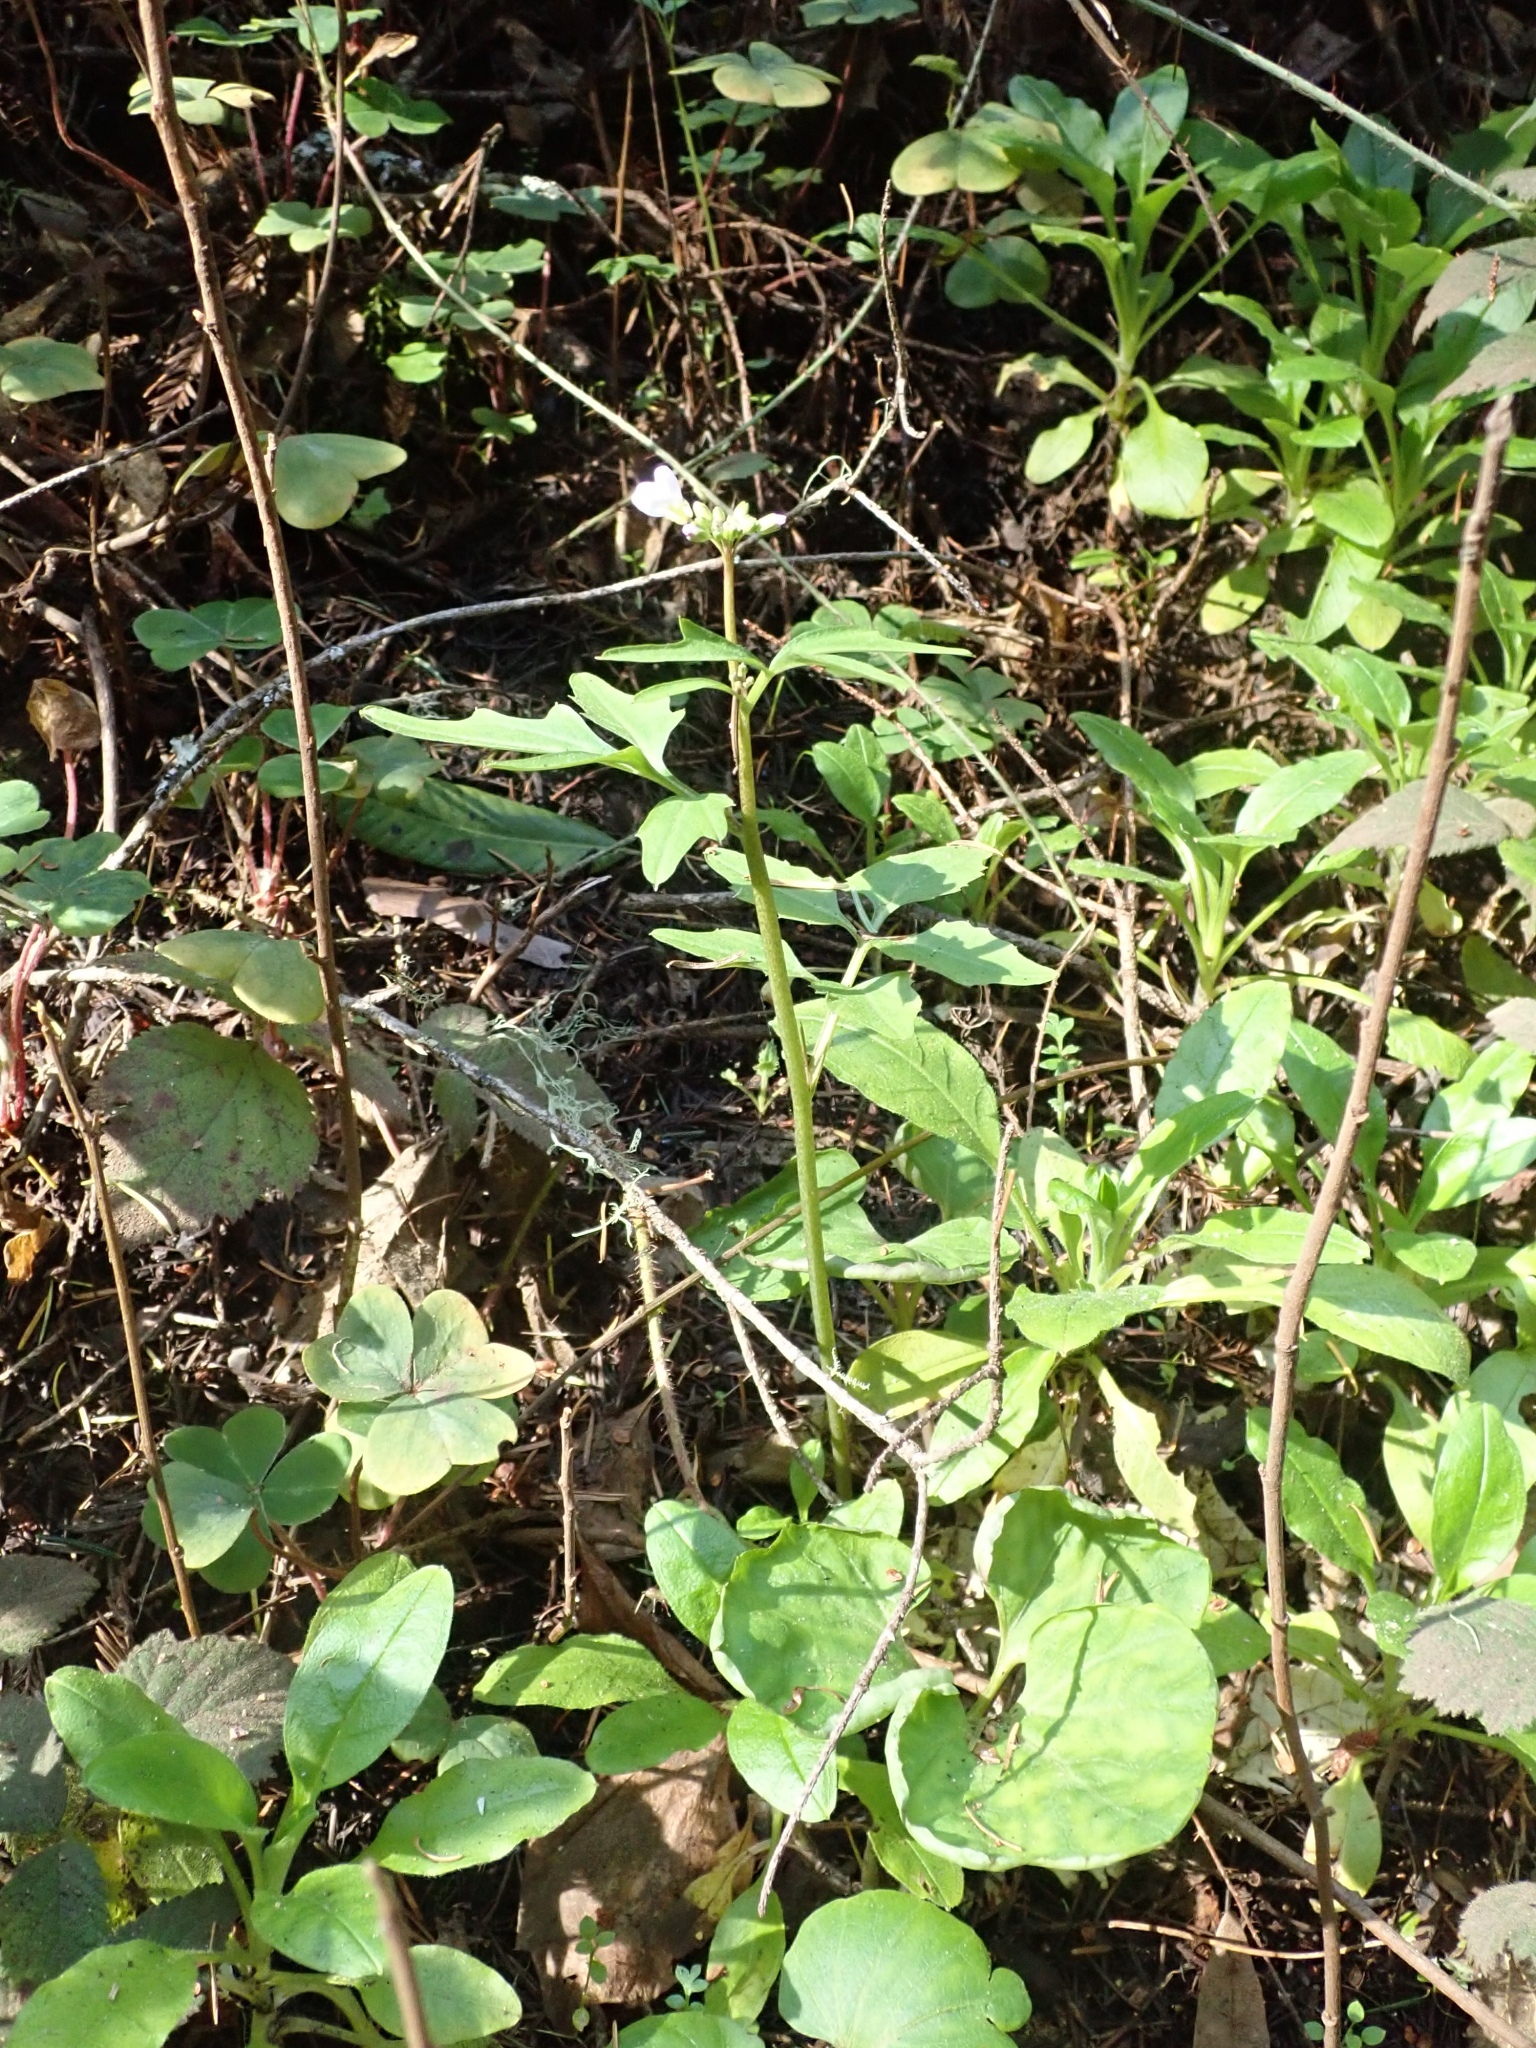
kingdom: Plantae
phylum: Tracheophyta
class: Magnoliopsida
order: Brassicales
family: Brassicaceae
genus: Cardamine
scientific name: Cardamine californica
